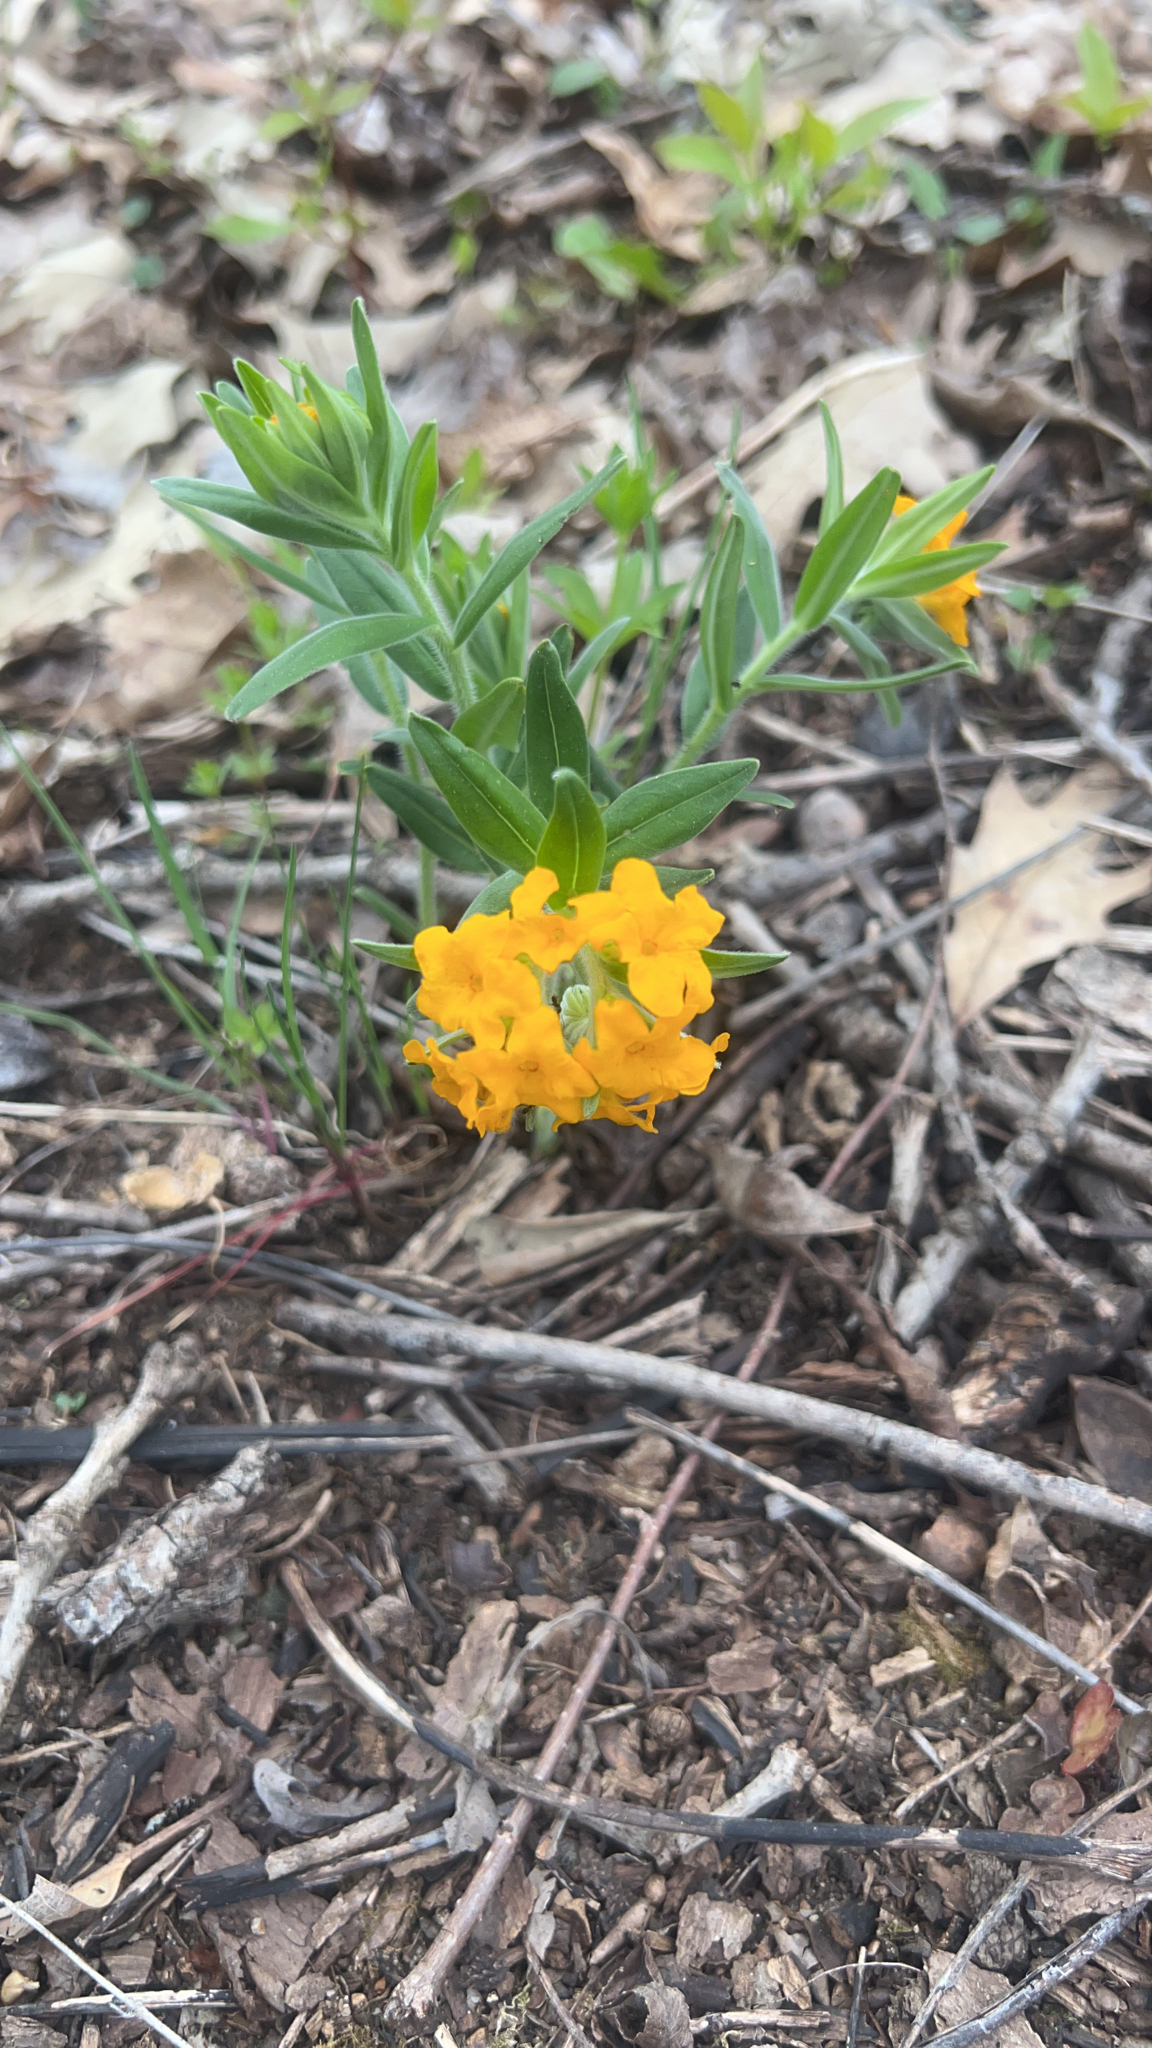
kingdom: Plantae
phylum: Tracheophyta
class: Magnoliopsida
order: Boraginales
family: Boraginaceae
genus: Lithospermum
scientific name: Lithospermum canescens
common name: Hoary puccoon
